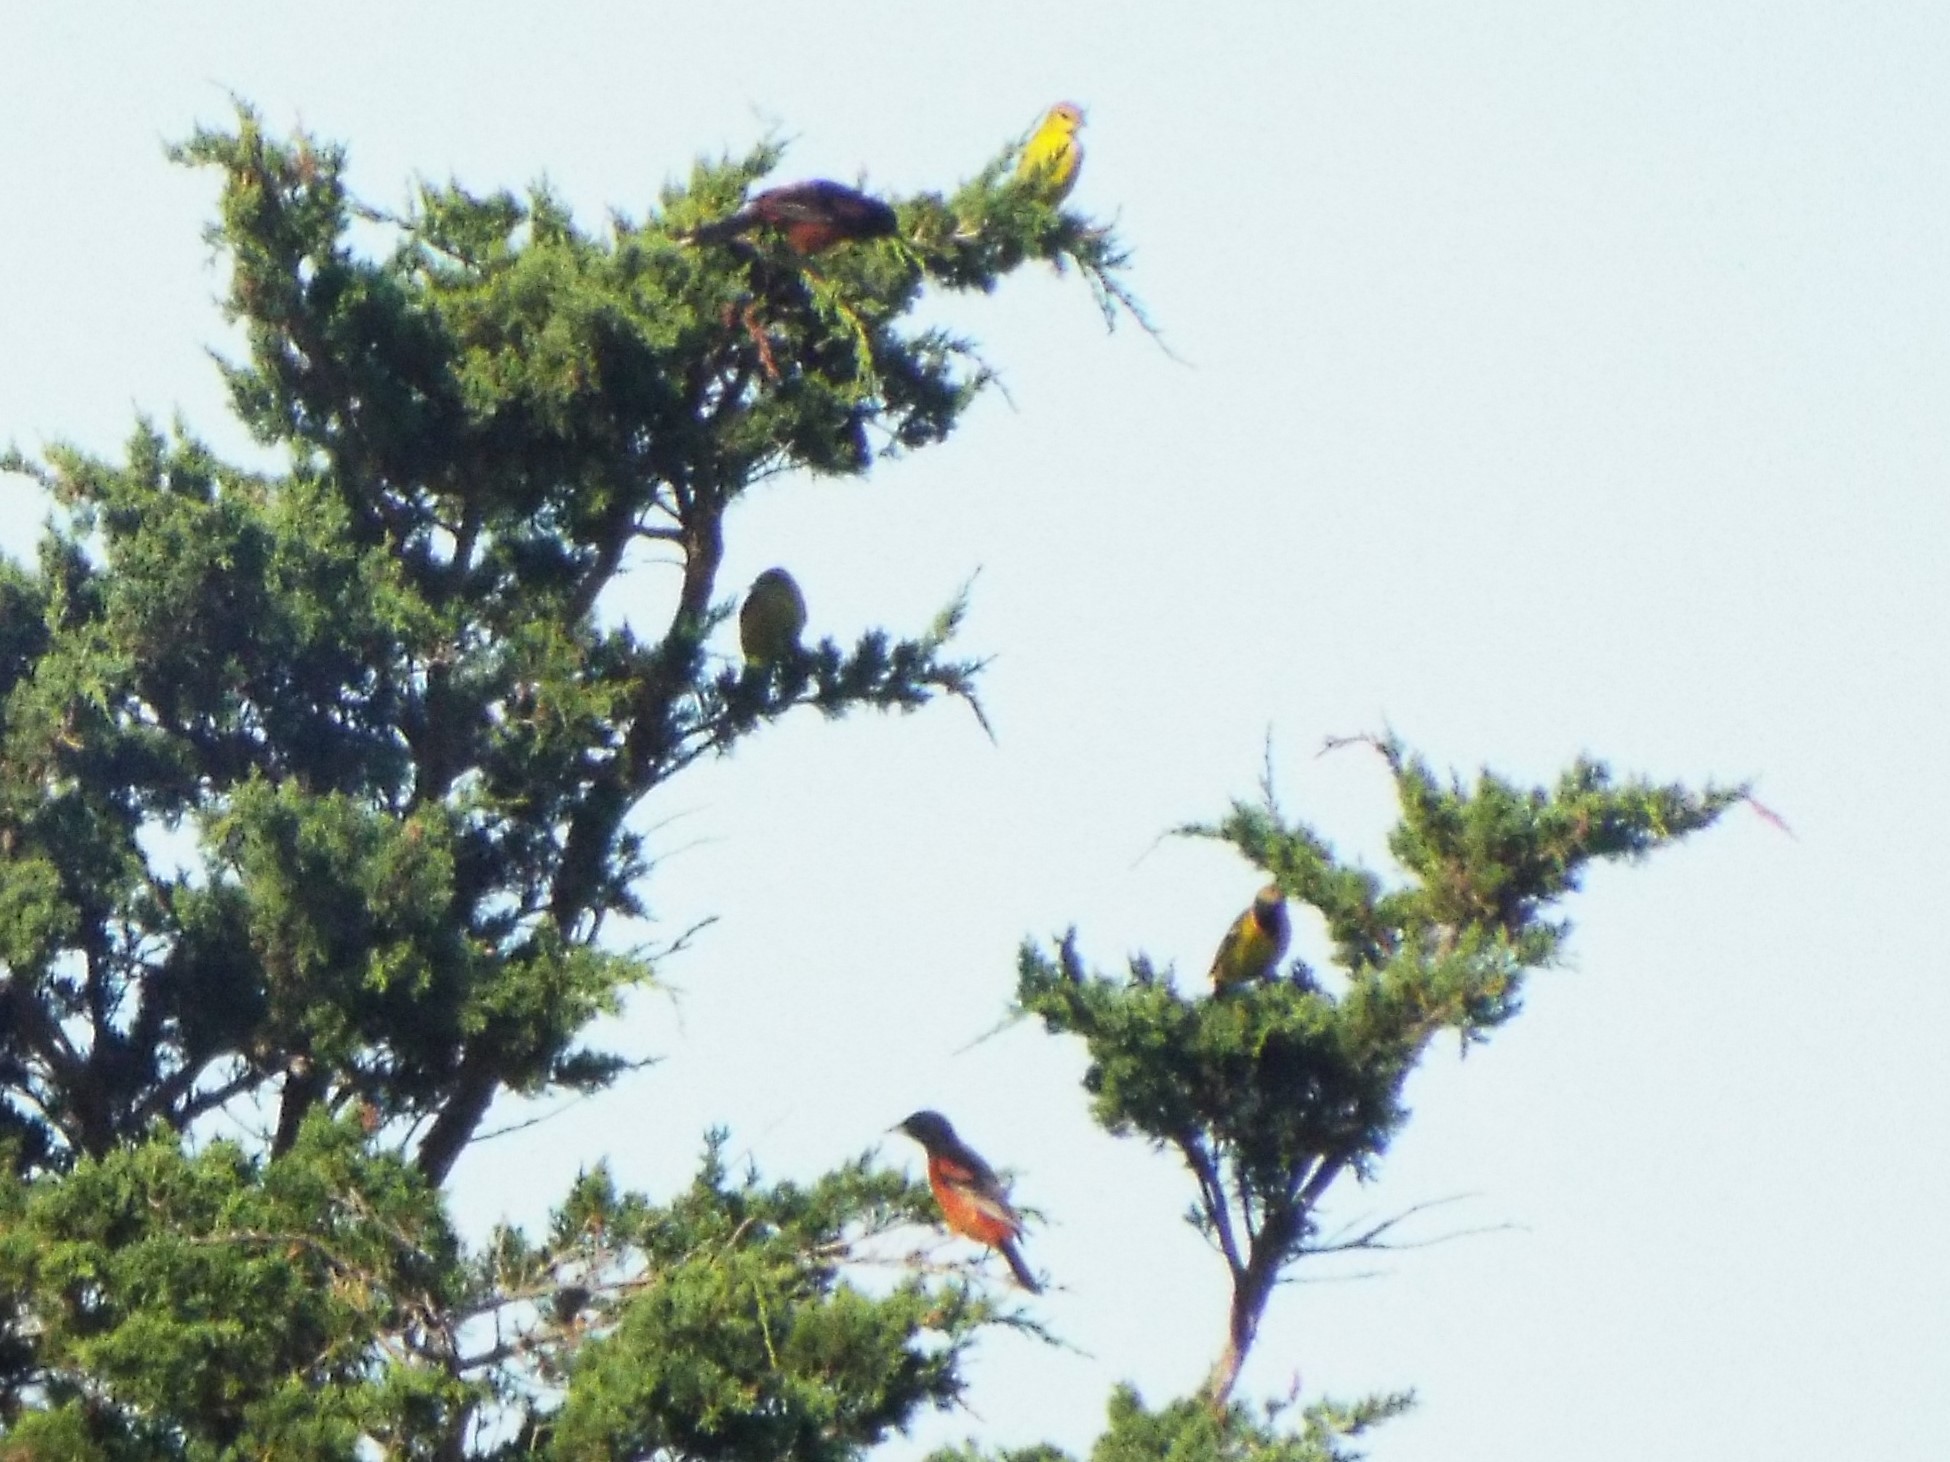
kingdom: Animalia
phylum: Chordata
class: Aves
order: Passeriformes
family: Icteridae
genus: Icterus
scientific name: Icterus spurius
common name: Orchard oriole
